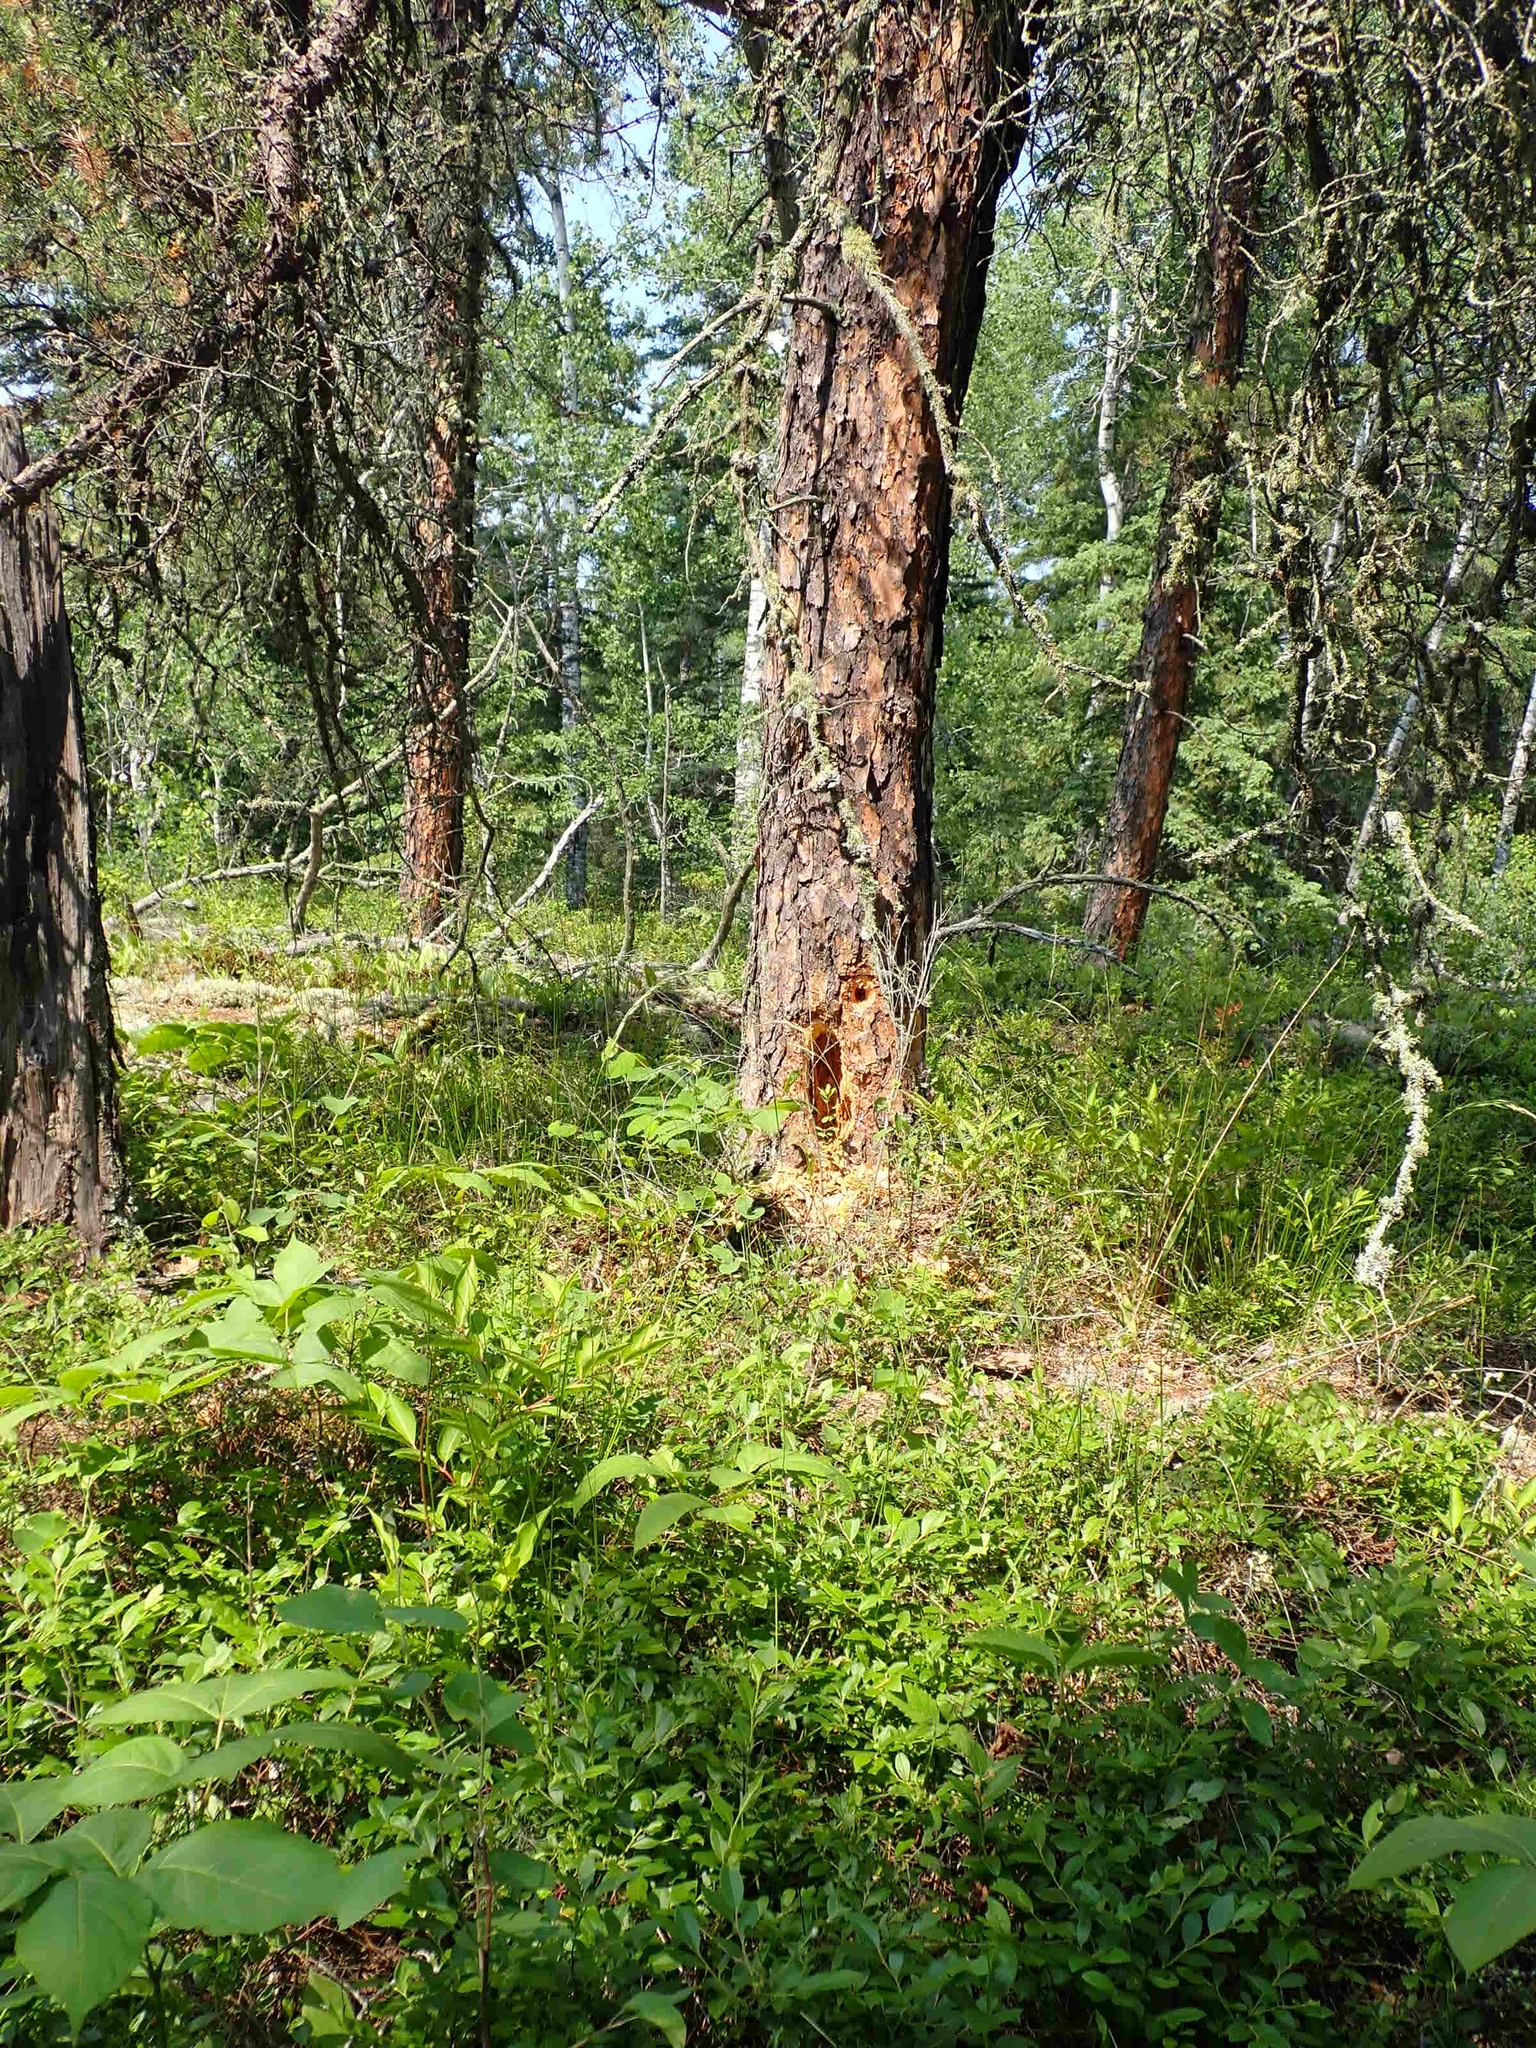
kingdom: Animalia
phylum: Chordata
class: Aves
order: Piciformes
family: Picidae
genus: Dryocopus
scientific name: Dryocopus pileatus
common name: Pileated woodpecker
